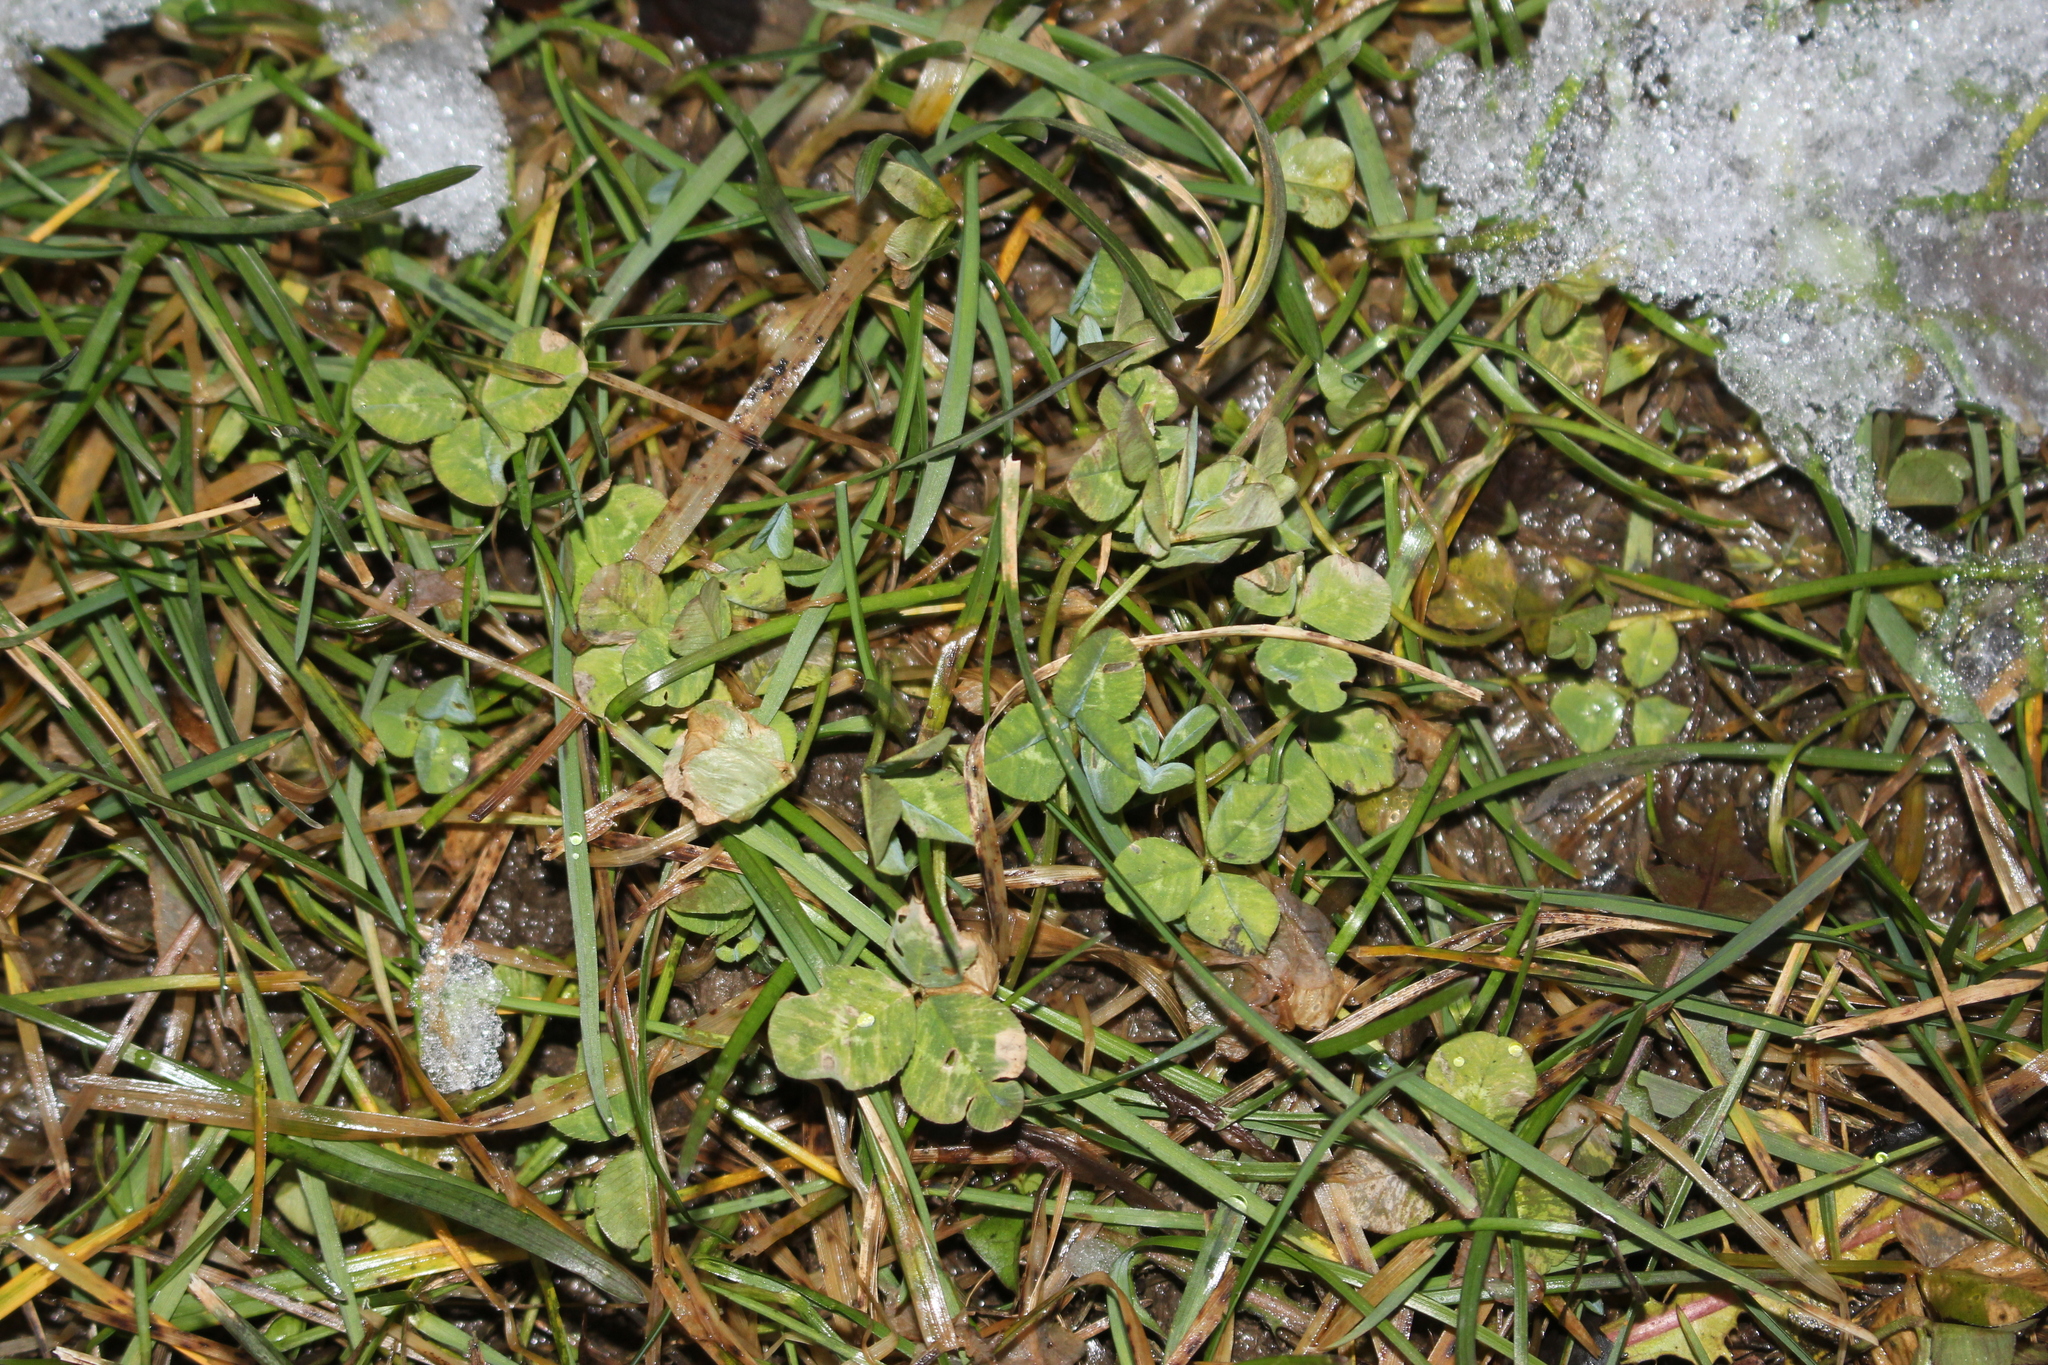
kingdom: Plantae
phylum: Tracheophyta
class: Magnoliopsida
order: Fabales
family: Fabaceae
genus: Trifolium
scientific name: Trifolium repens
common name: White clover
